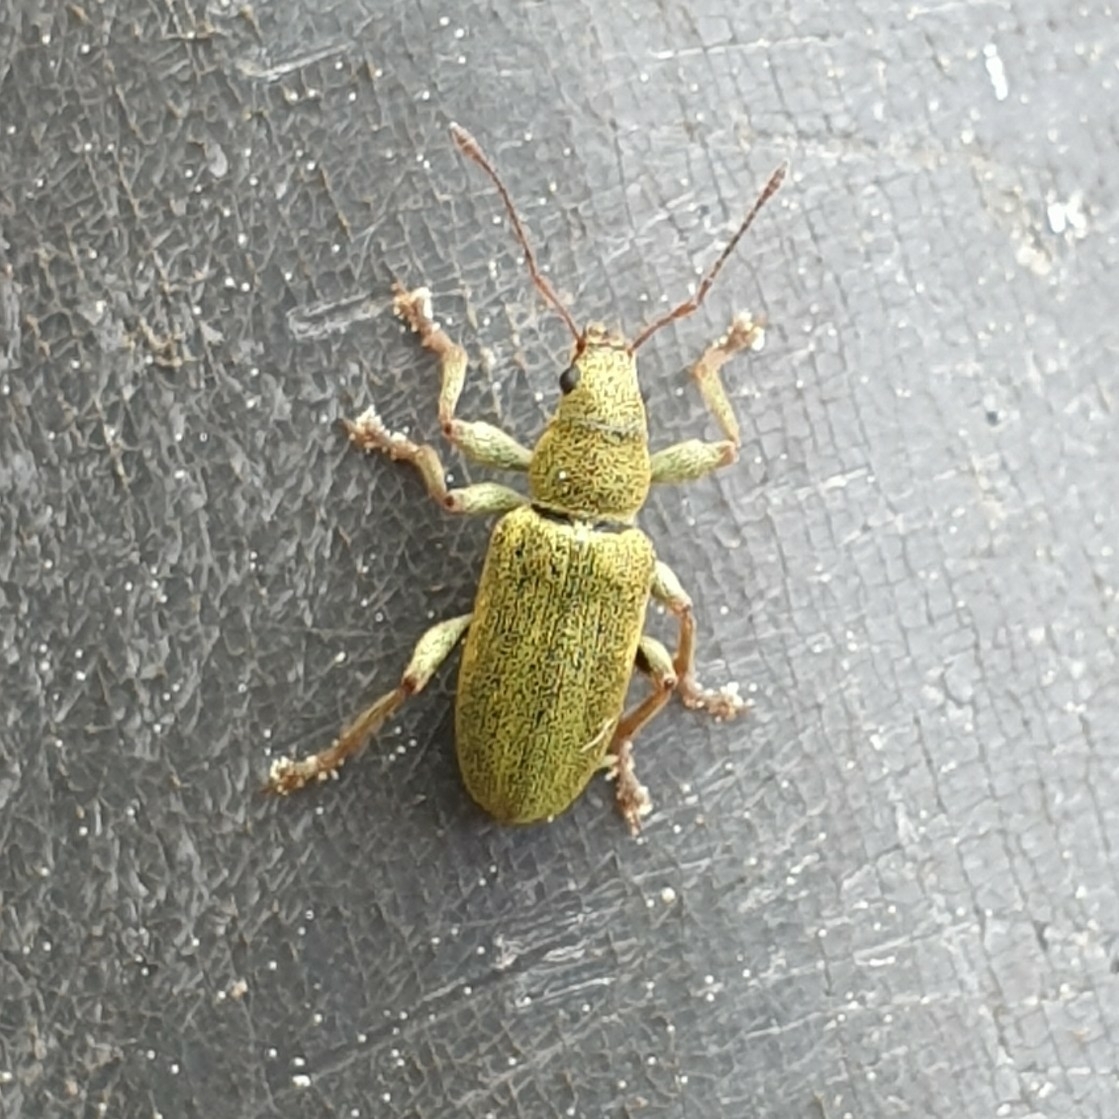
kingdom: Animalia
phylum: Arthropoda
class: Insecta
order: Coleoptera
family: Curculionidae
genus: Pachyrhinus
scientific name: Pachyrhinus lethierryi
